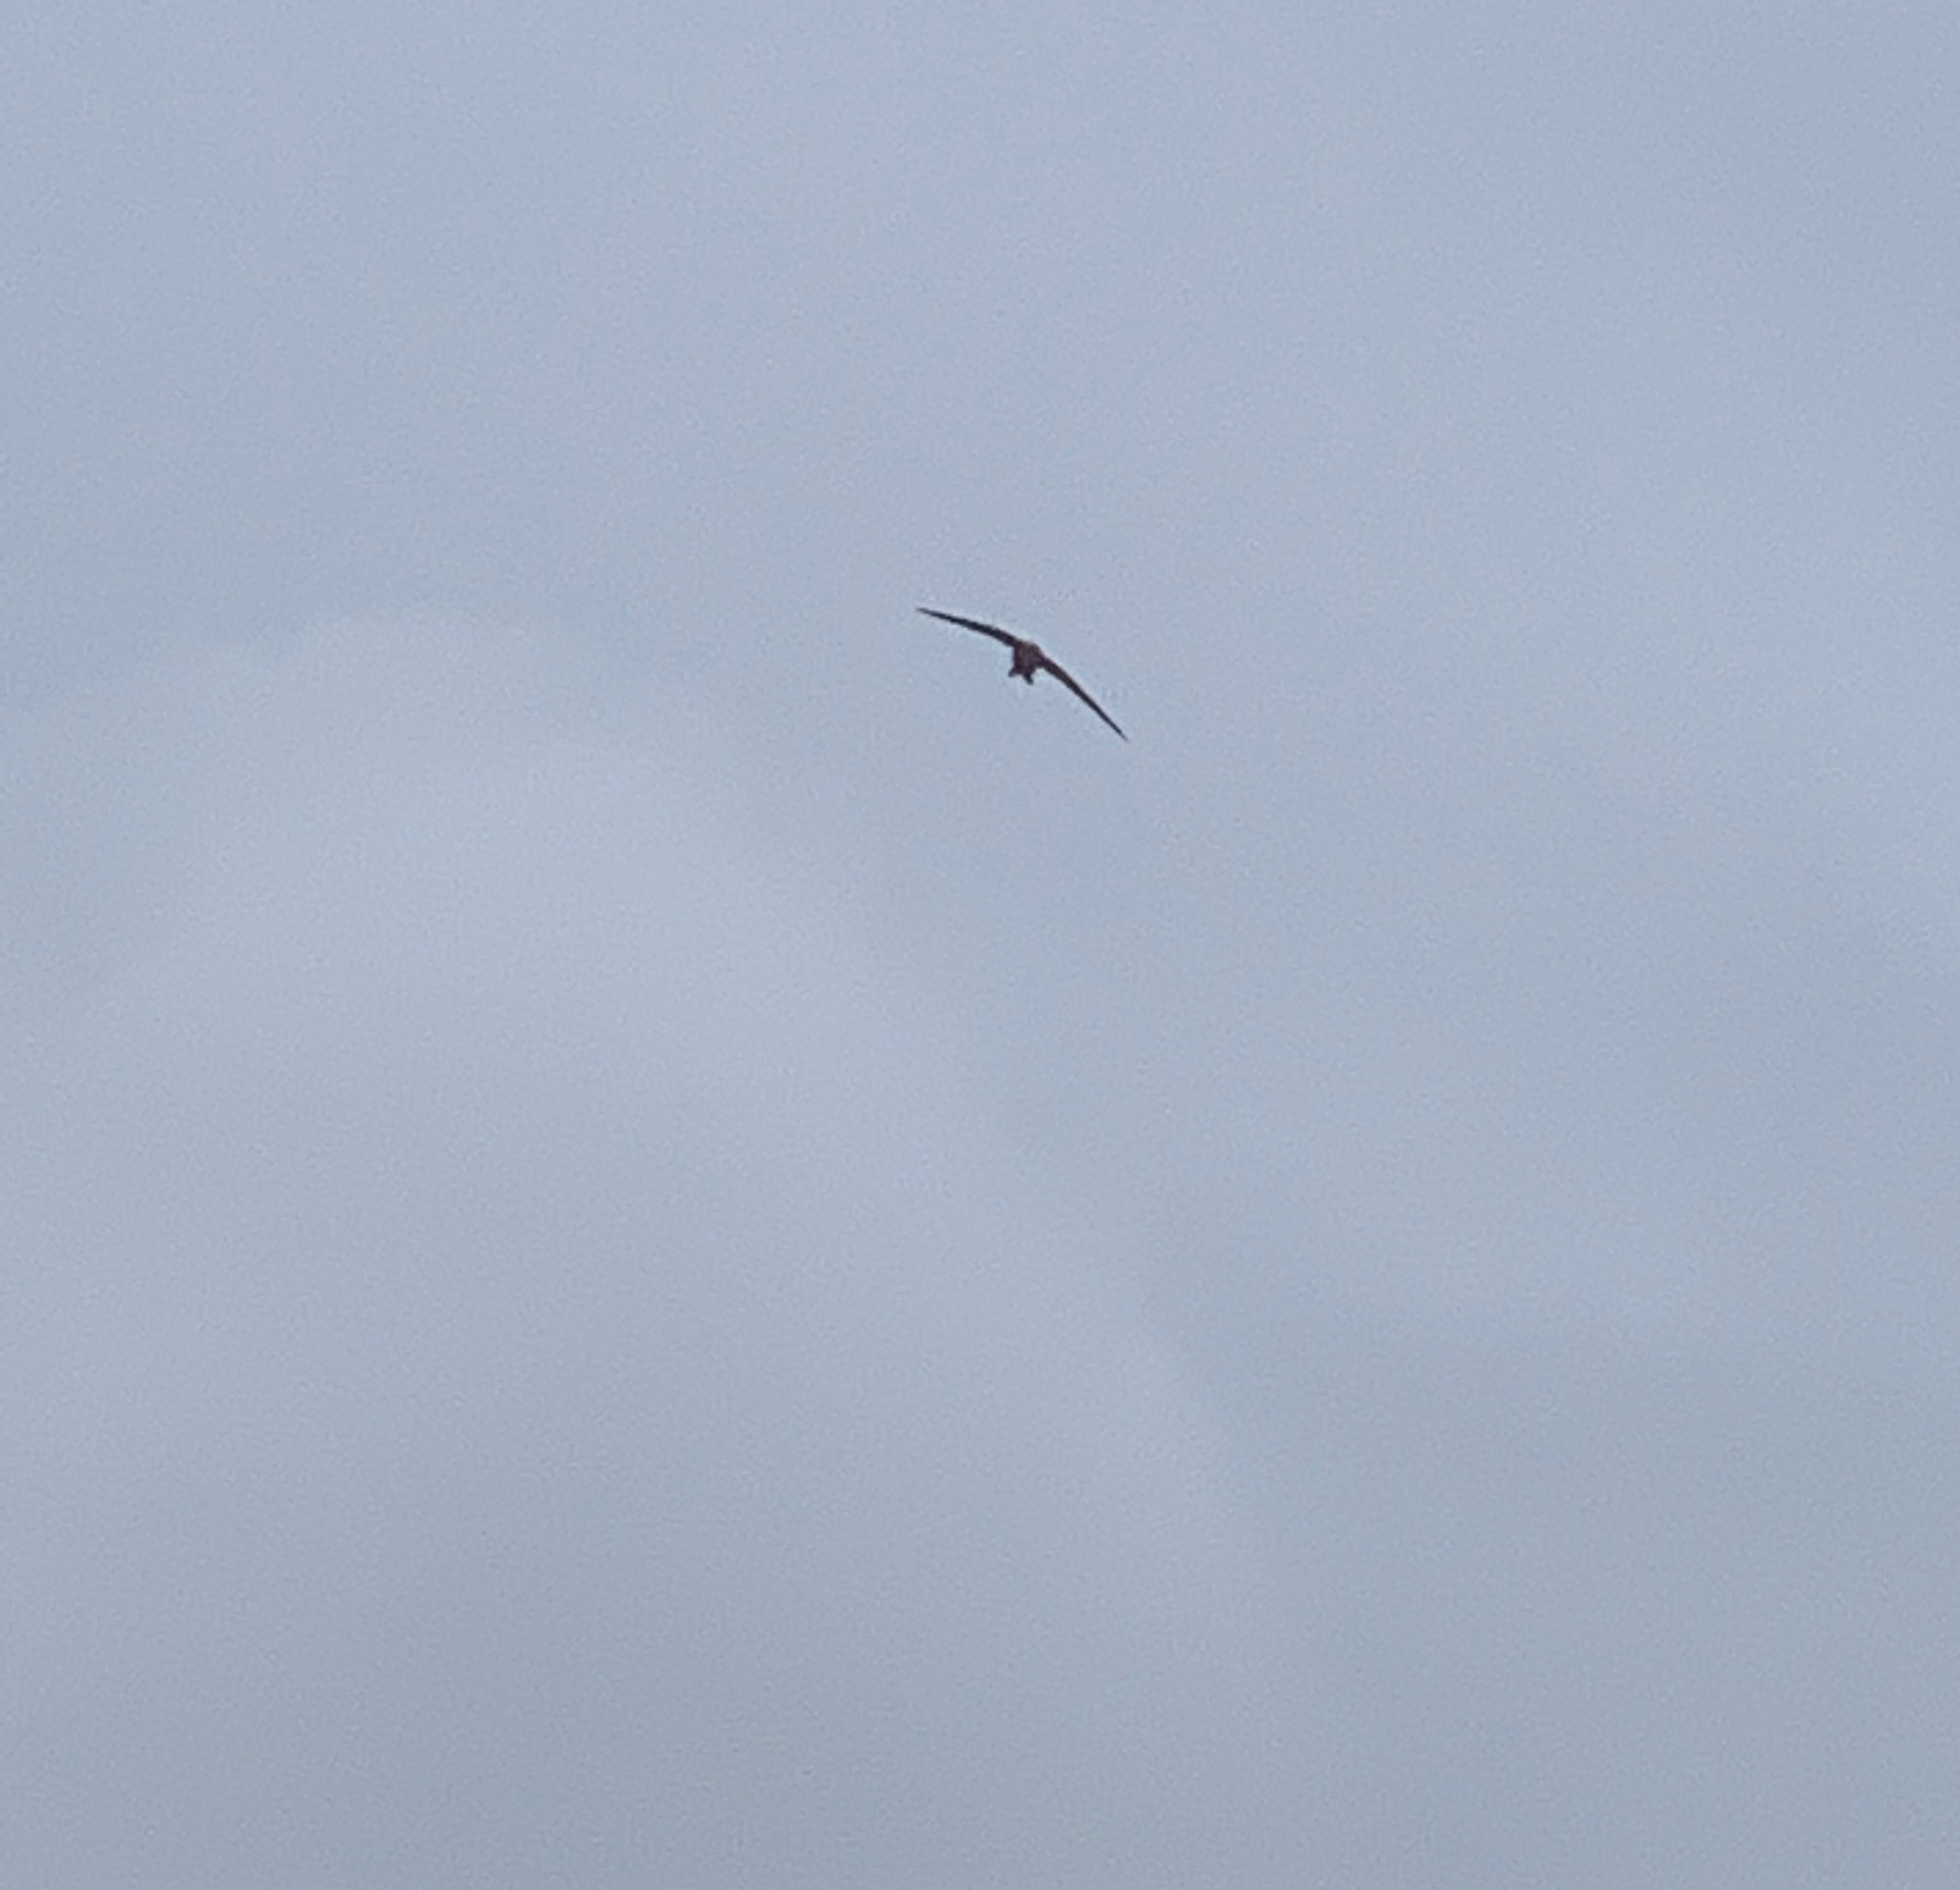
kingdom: Animalia
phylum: Chordata
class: Aves
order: Apodiformes
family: Apodidae
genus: Apus
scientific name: Apus apus
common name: Common swift
